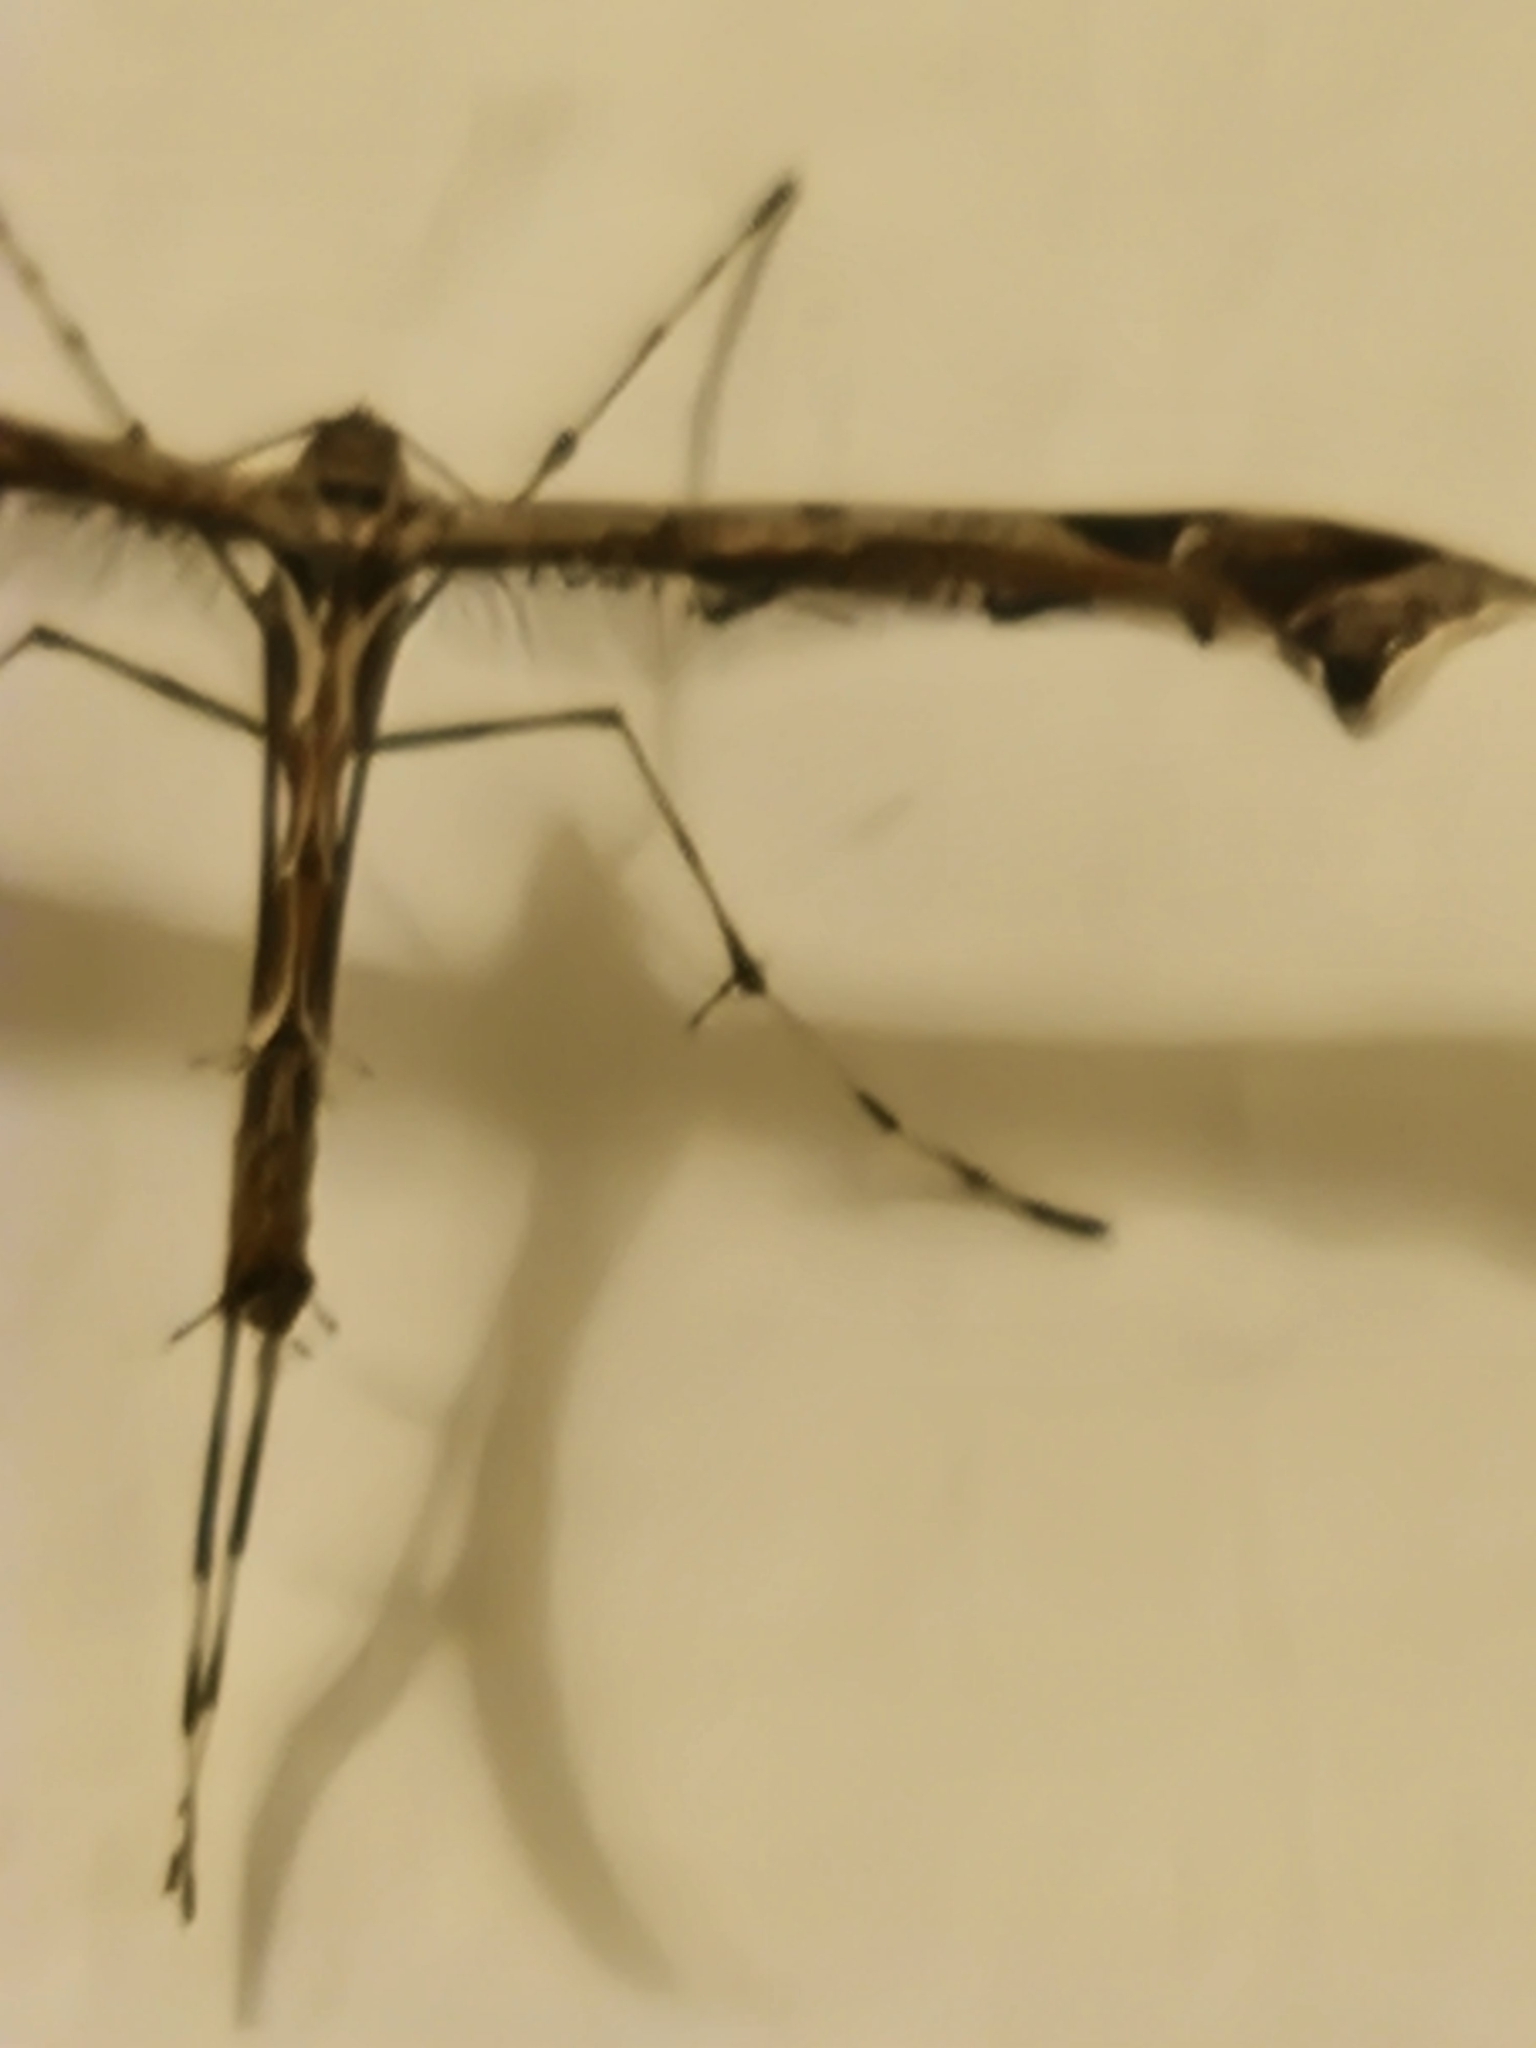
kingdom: Animalia
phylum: Arthropoda
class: Insecta
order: Lepidoptera
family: Pterophoridae
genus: Amblyptilia
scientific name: Amblyptilia acanthadactyla
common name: Beautiful plume
